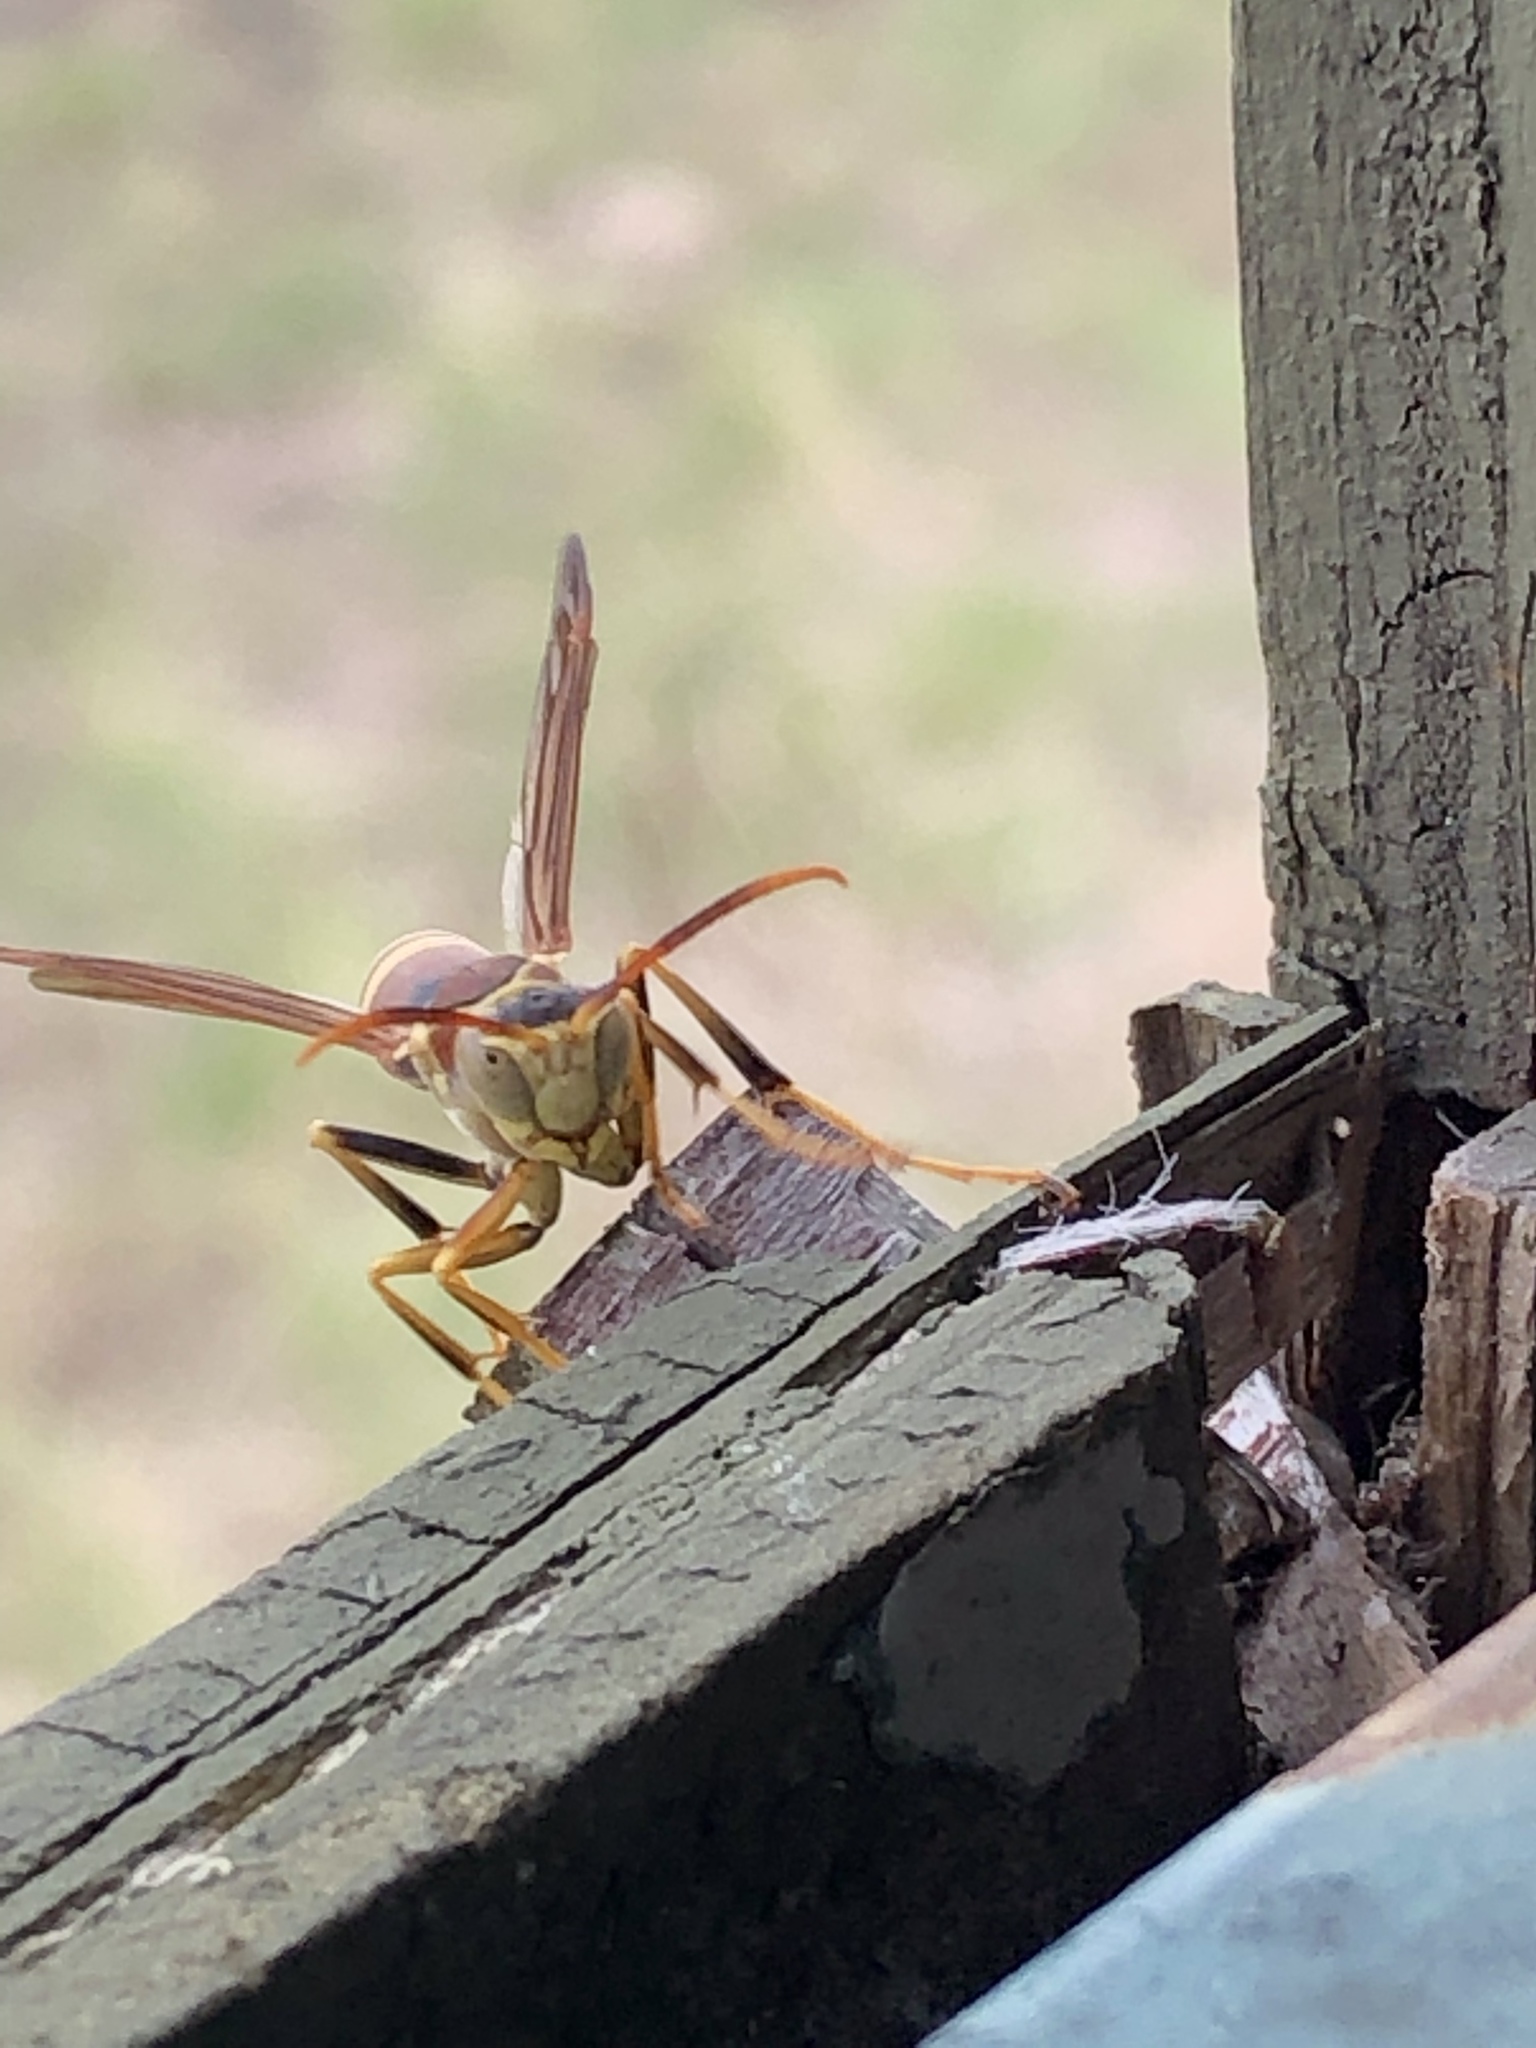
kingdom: Animalia
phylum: Arthropoda
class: Insecta
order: Hymenoptera
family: Eumenidae
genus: Polistes
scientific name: Polistes exclamans
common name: Paper wasp
